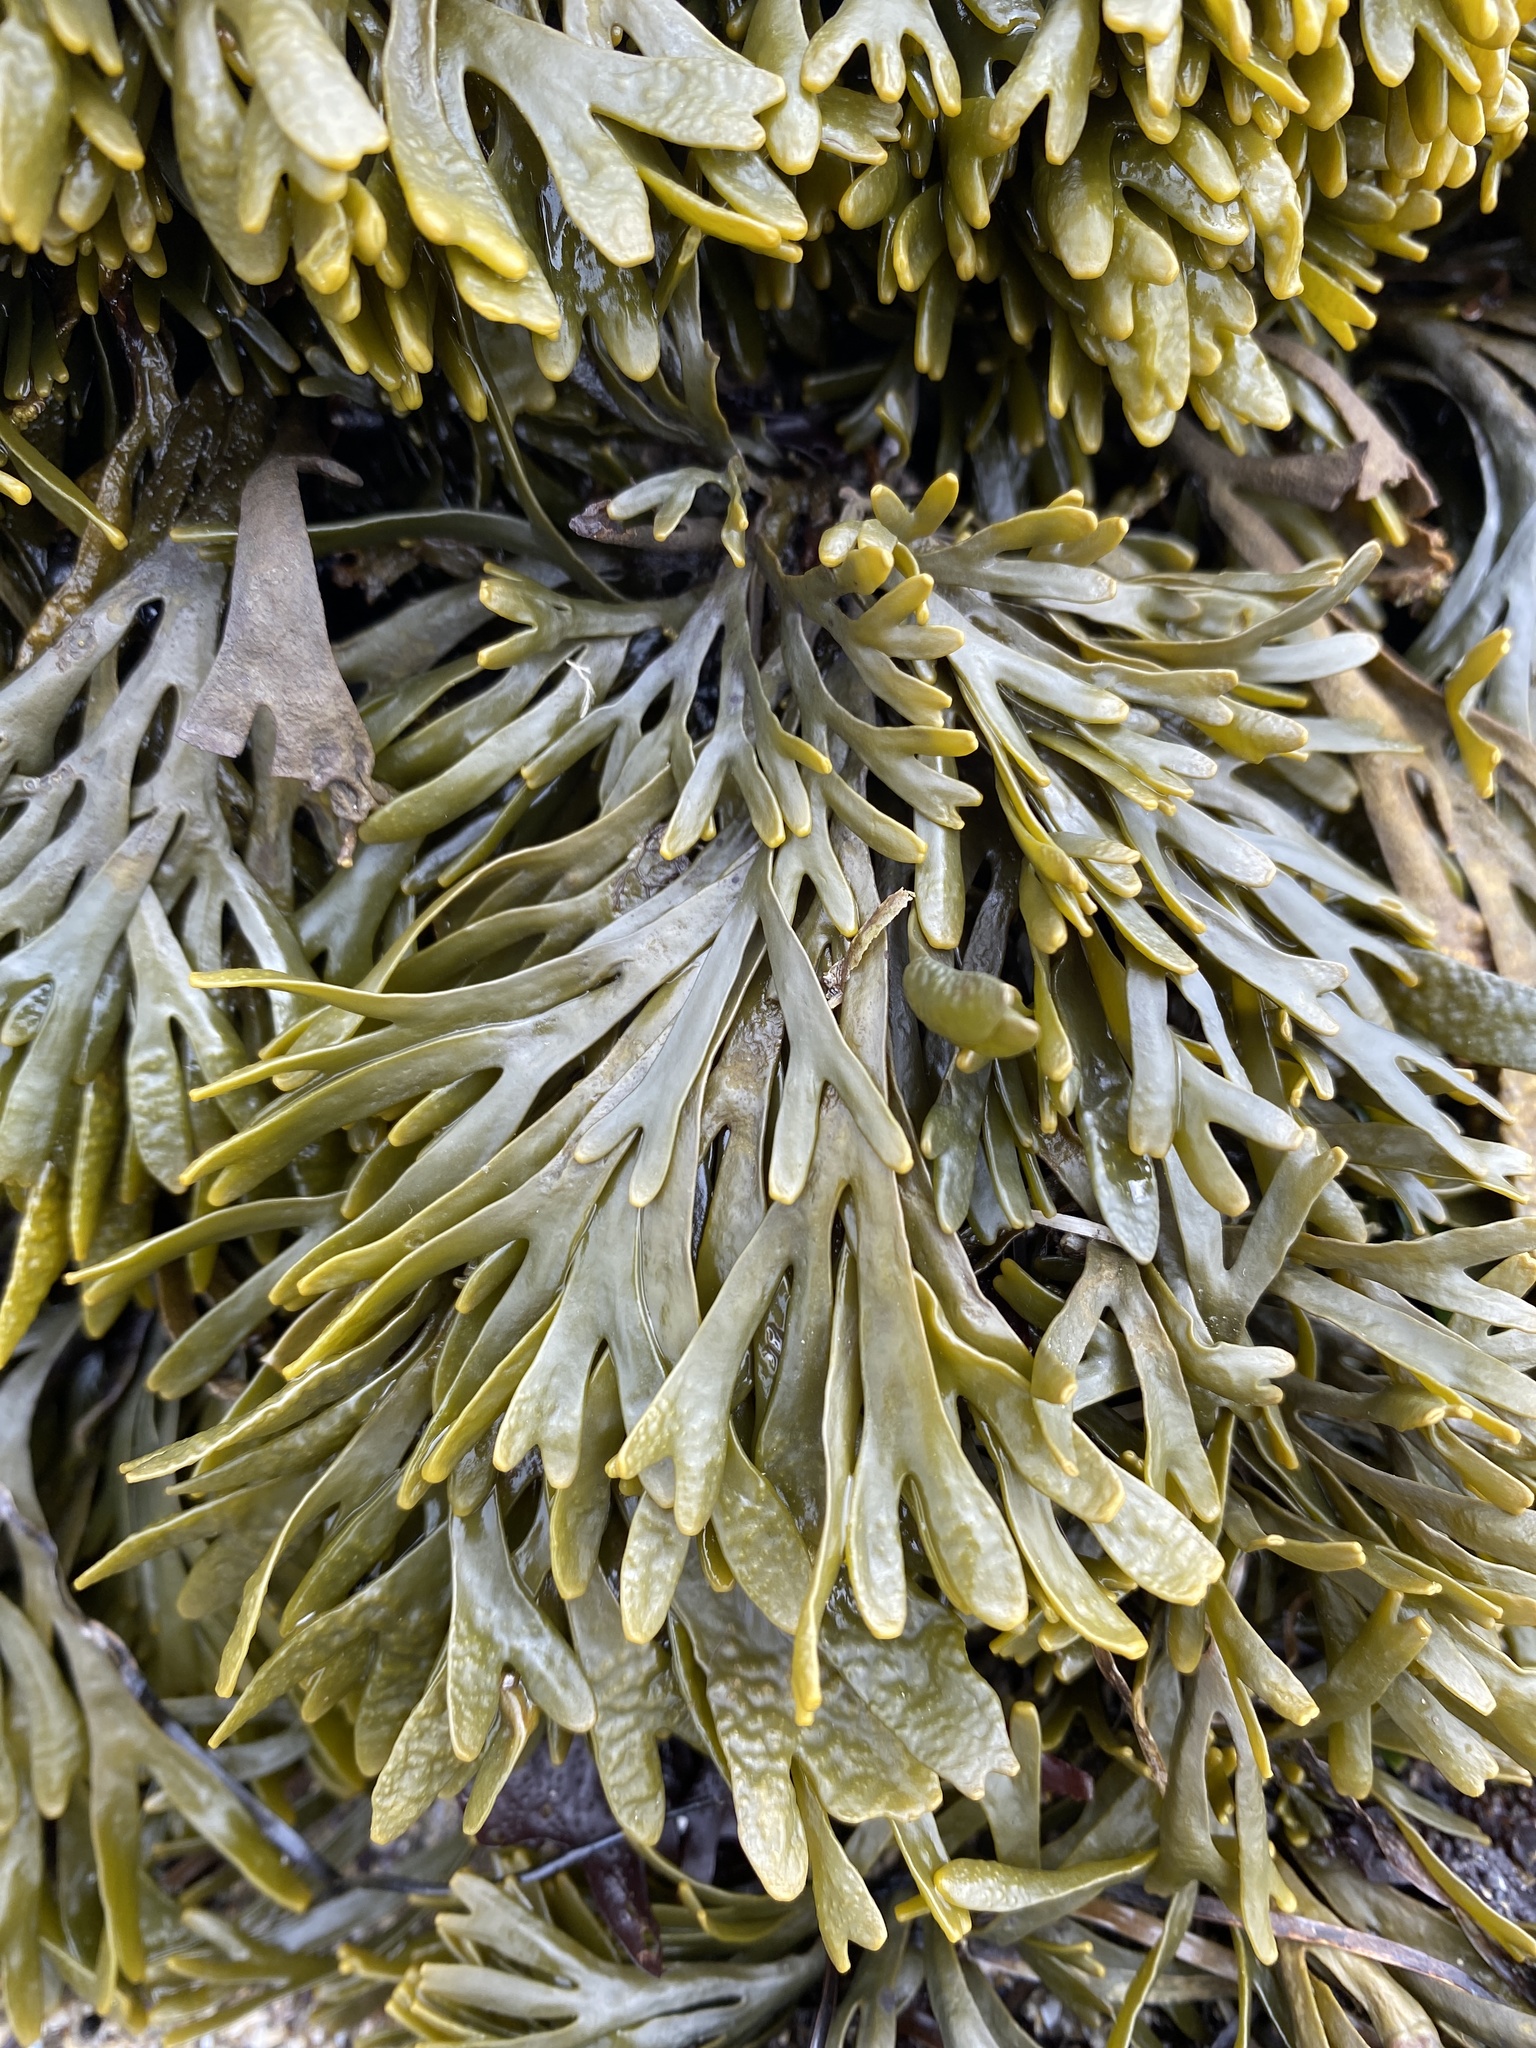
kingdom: Chromista
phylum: Ochrophyta
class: Phaeophyceae
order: Fucales
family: Fucaceae
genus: Pelvetiopsis
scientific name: Pelvetiopsis limitata
